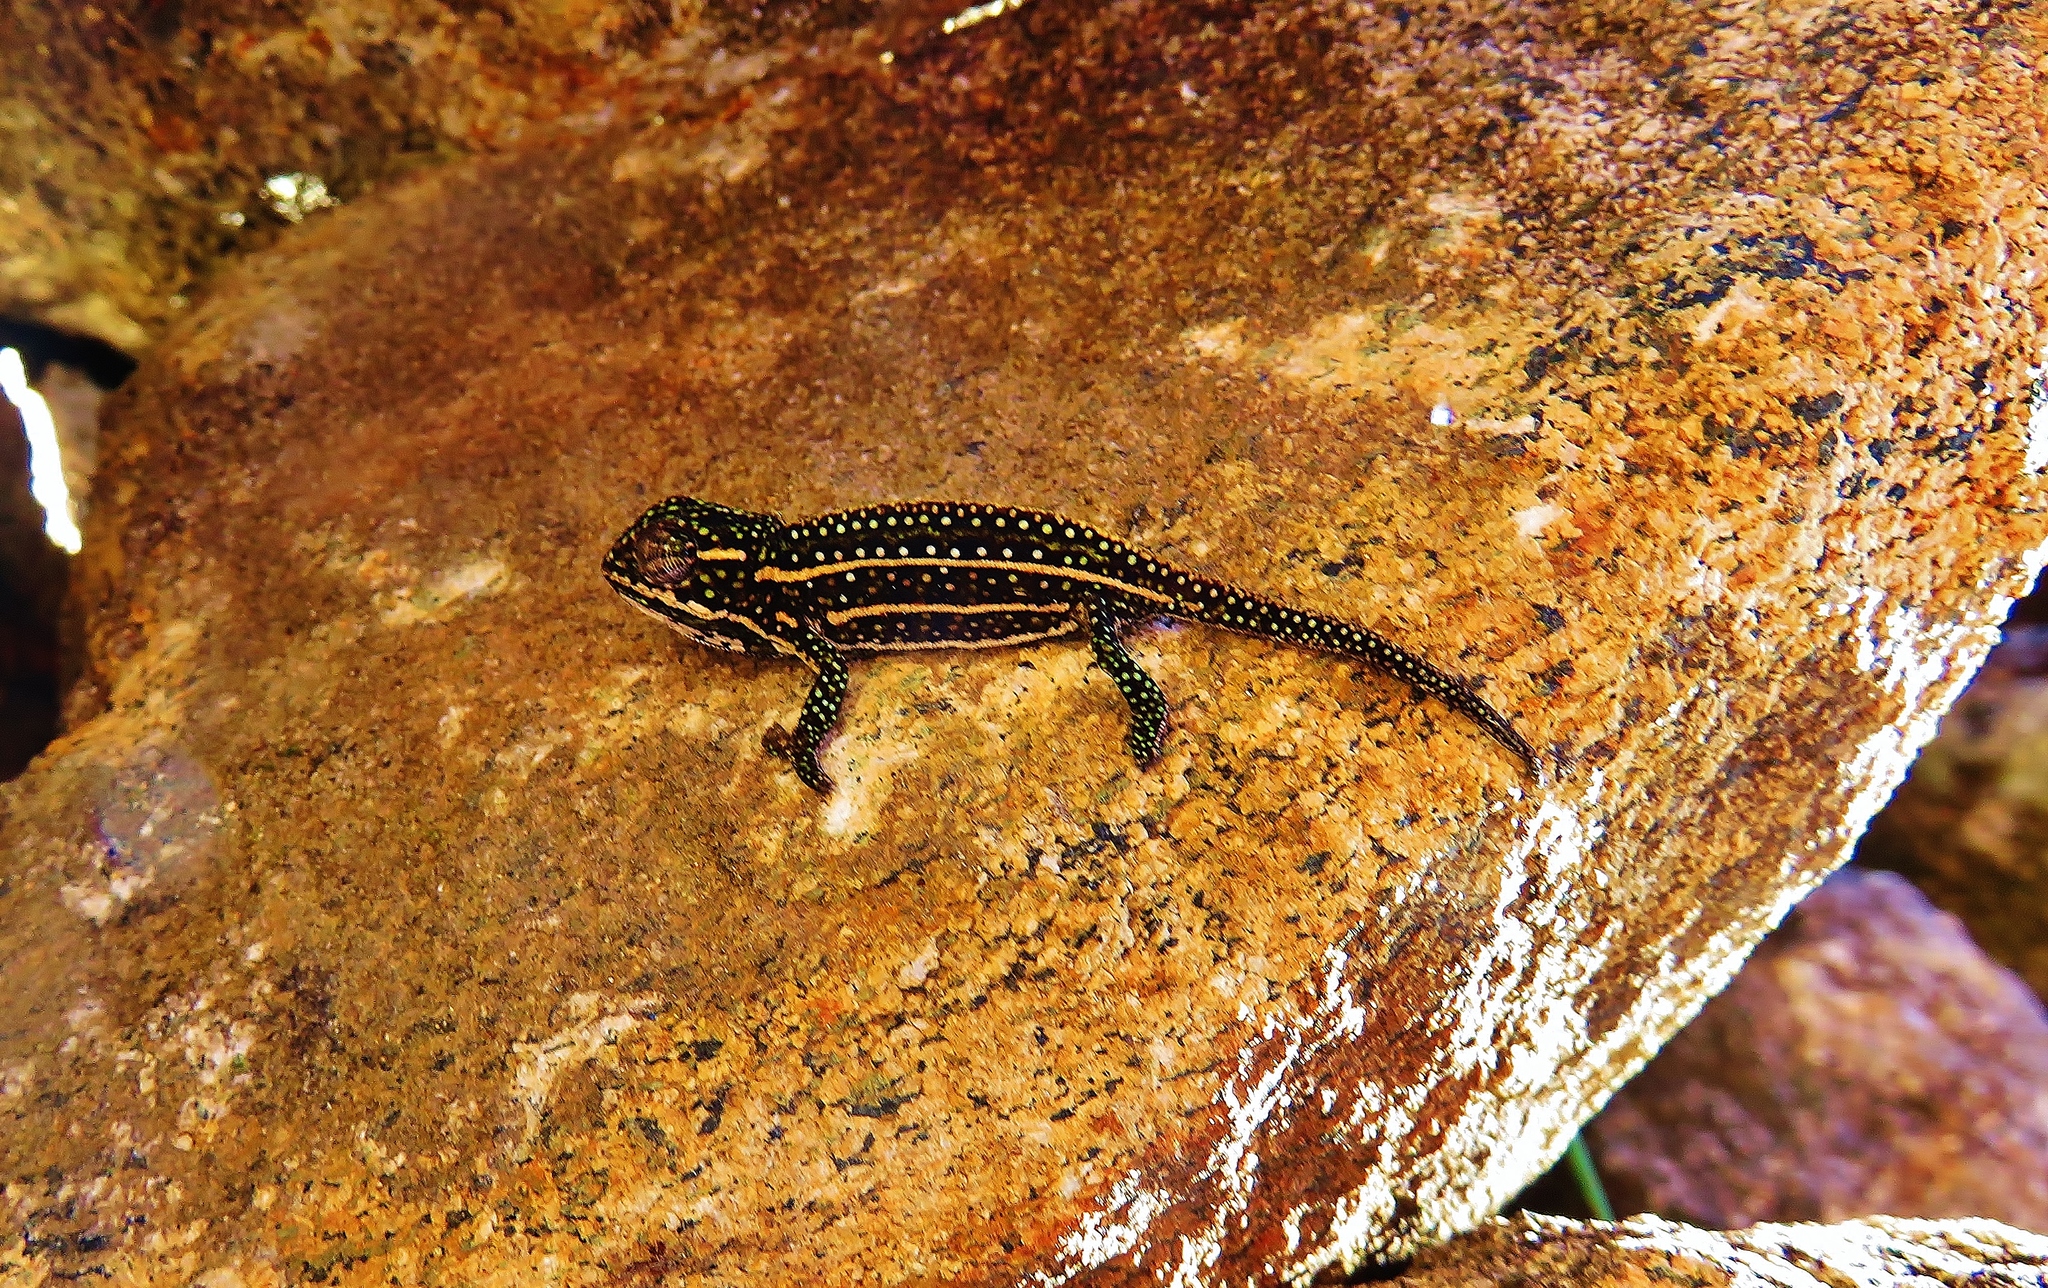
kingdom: Animalia
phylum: Chordata
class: Squamata
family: Chamaeleonidae
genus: Furcifer
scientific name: Furcifer campani
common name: Campan’s chameleon
